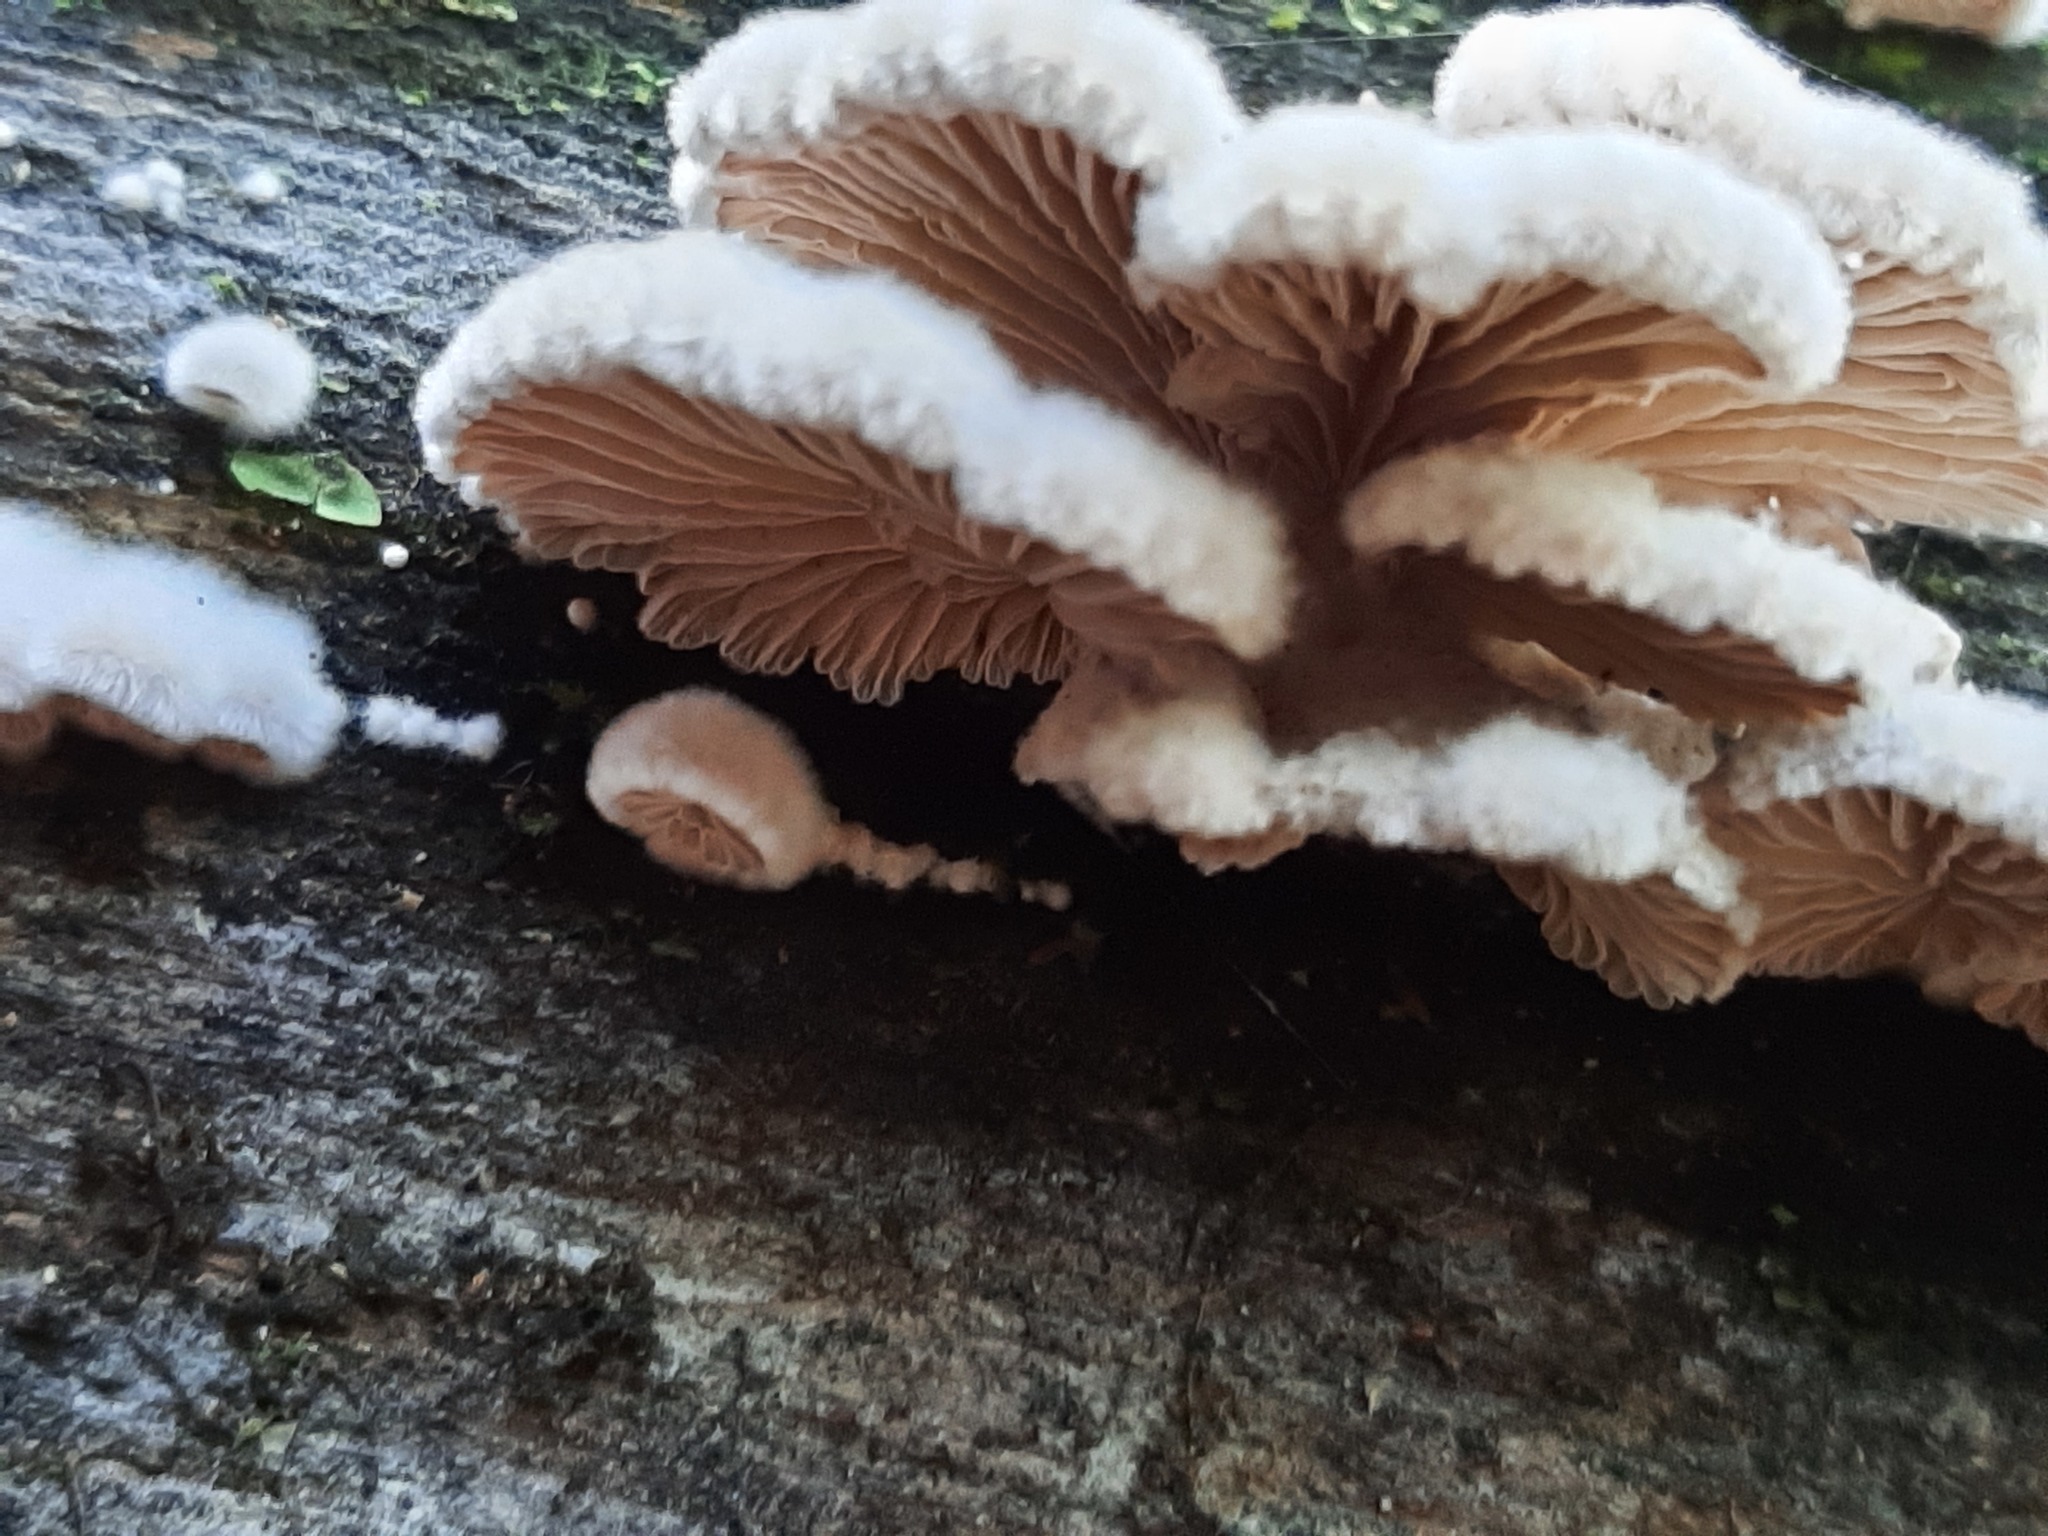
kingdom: Fungi
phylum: Basidiomycota
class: Agaricomycetes
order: Agaricales
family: Schizophyllaceae
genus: Schizophyllum
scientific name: Schizophyllum commune
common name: Common porecrust
